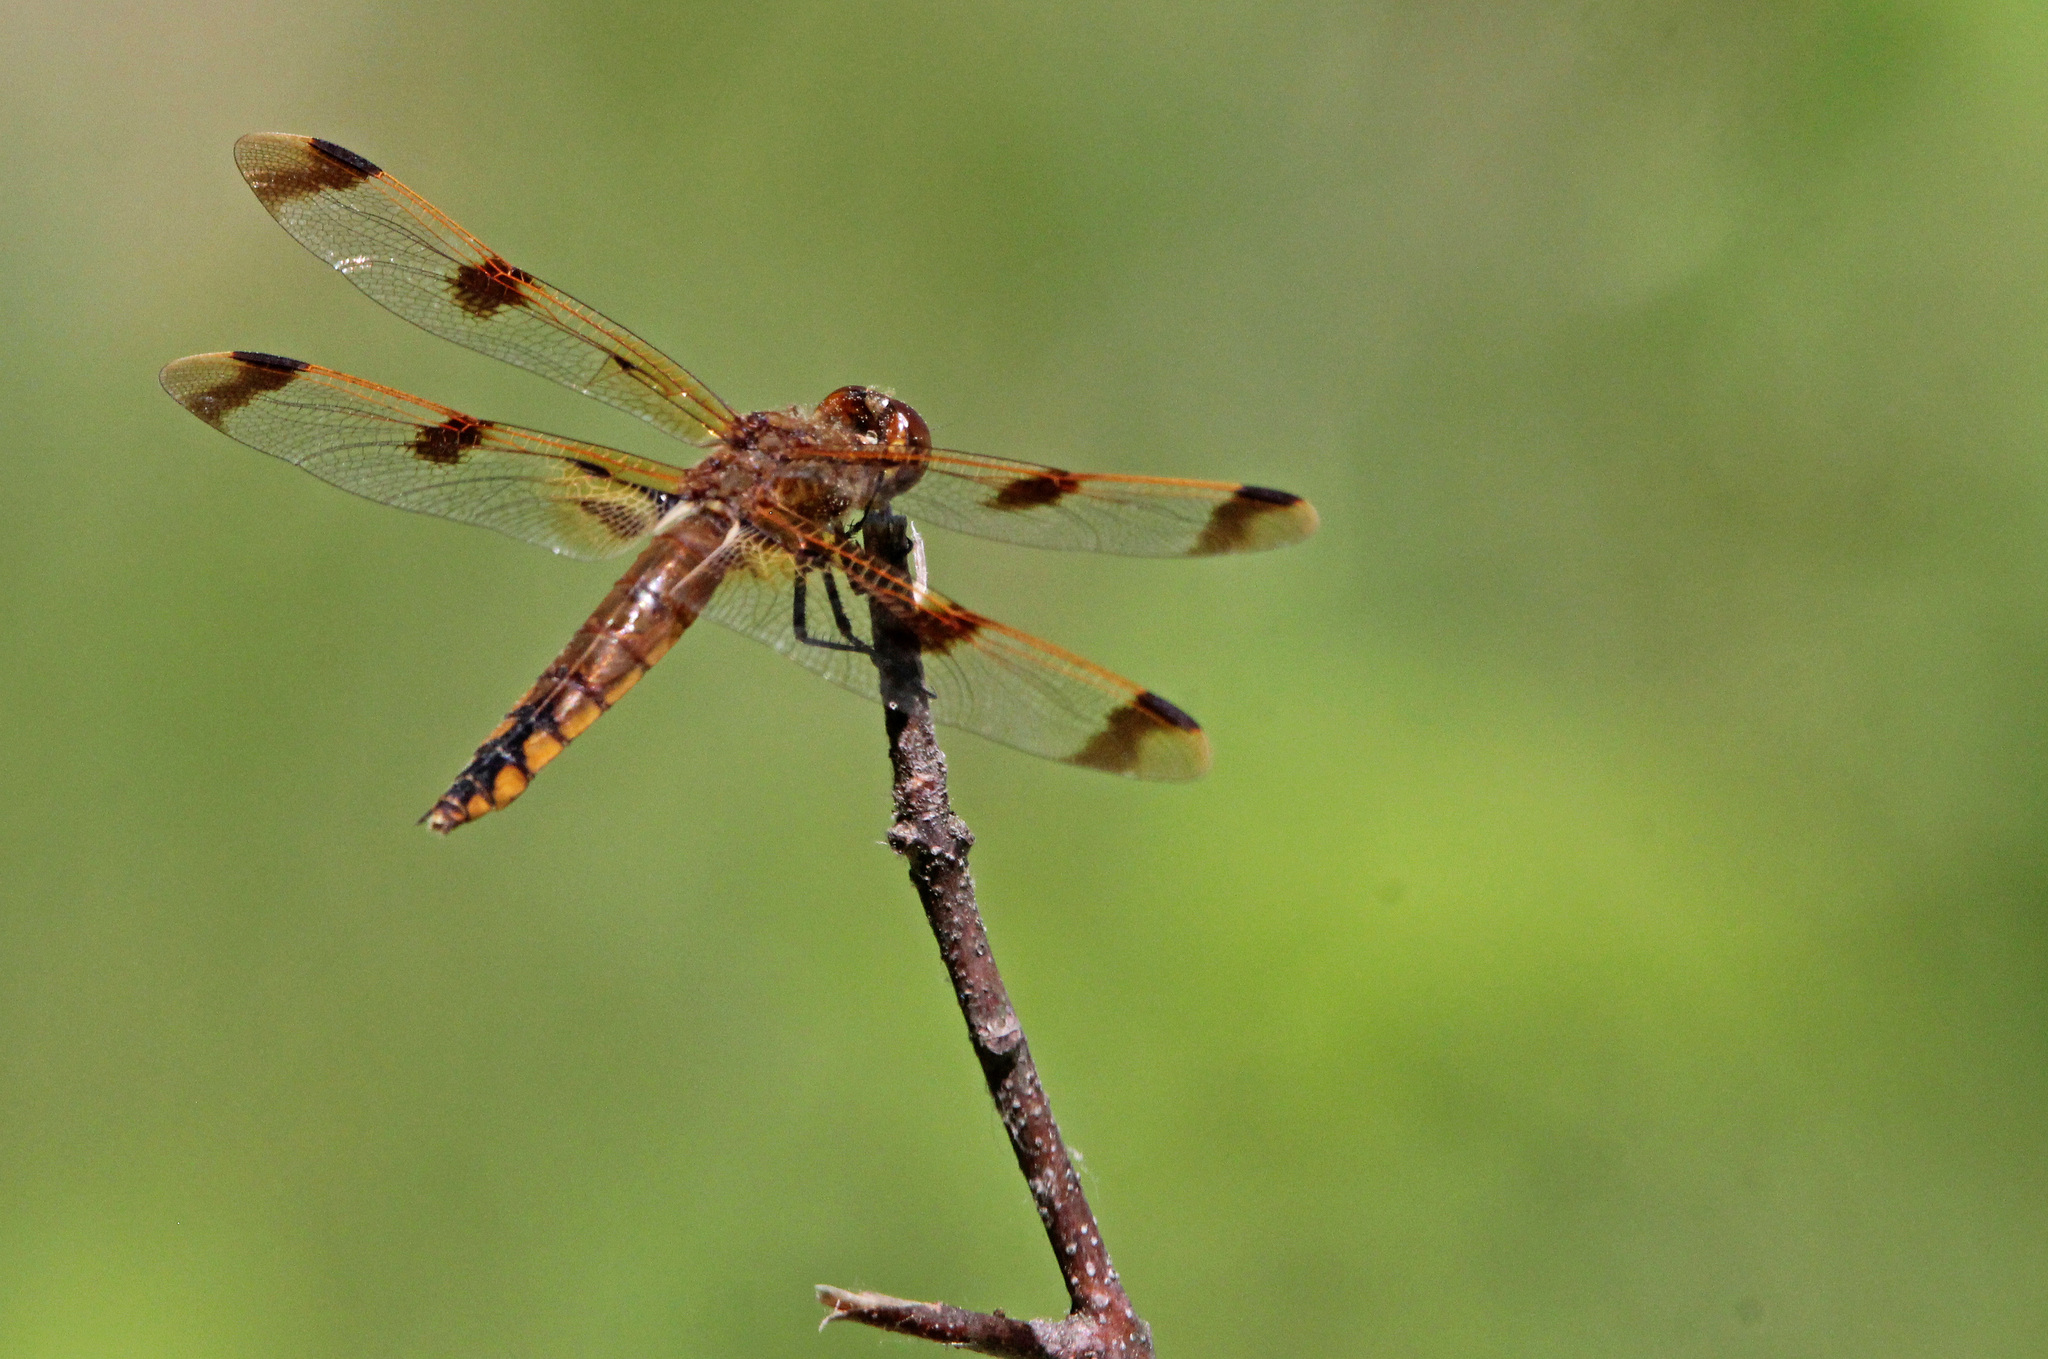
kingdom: Animalia
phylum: Arthropoda
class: Insecta
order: Odonata
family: Libellulidae
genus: Libellula
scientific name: Libellula semifasciata
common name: Painted skimmer
